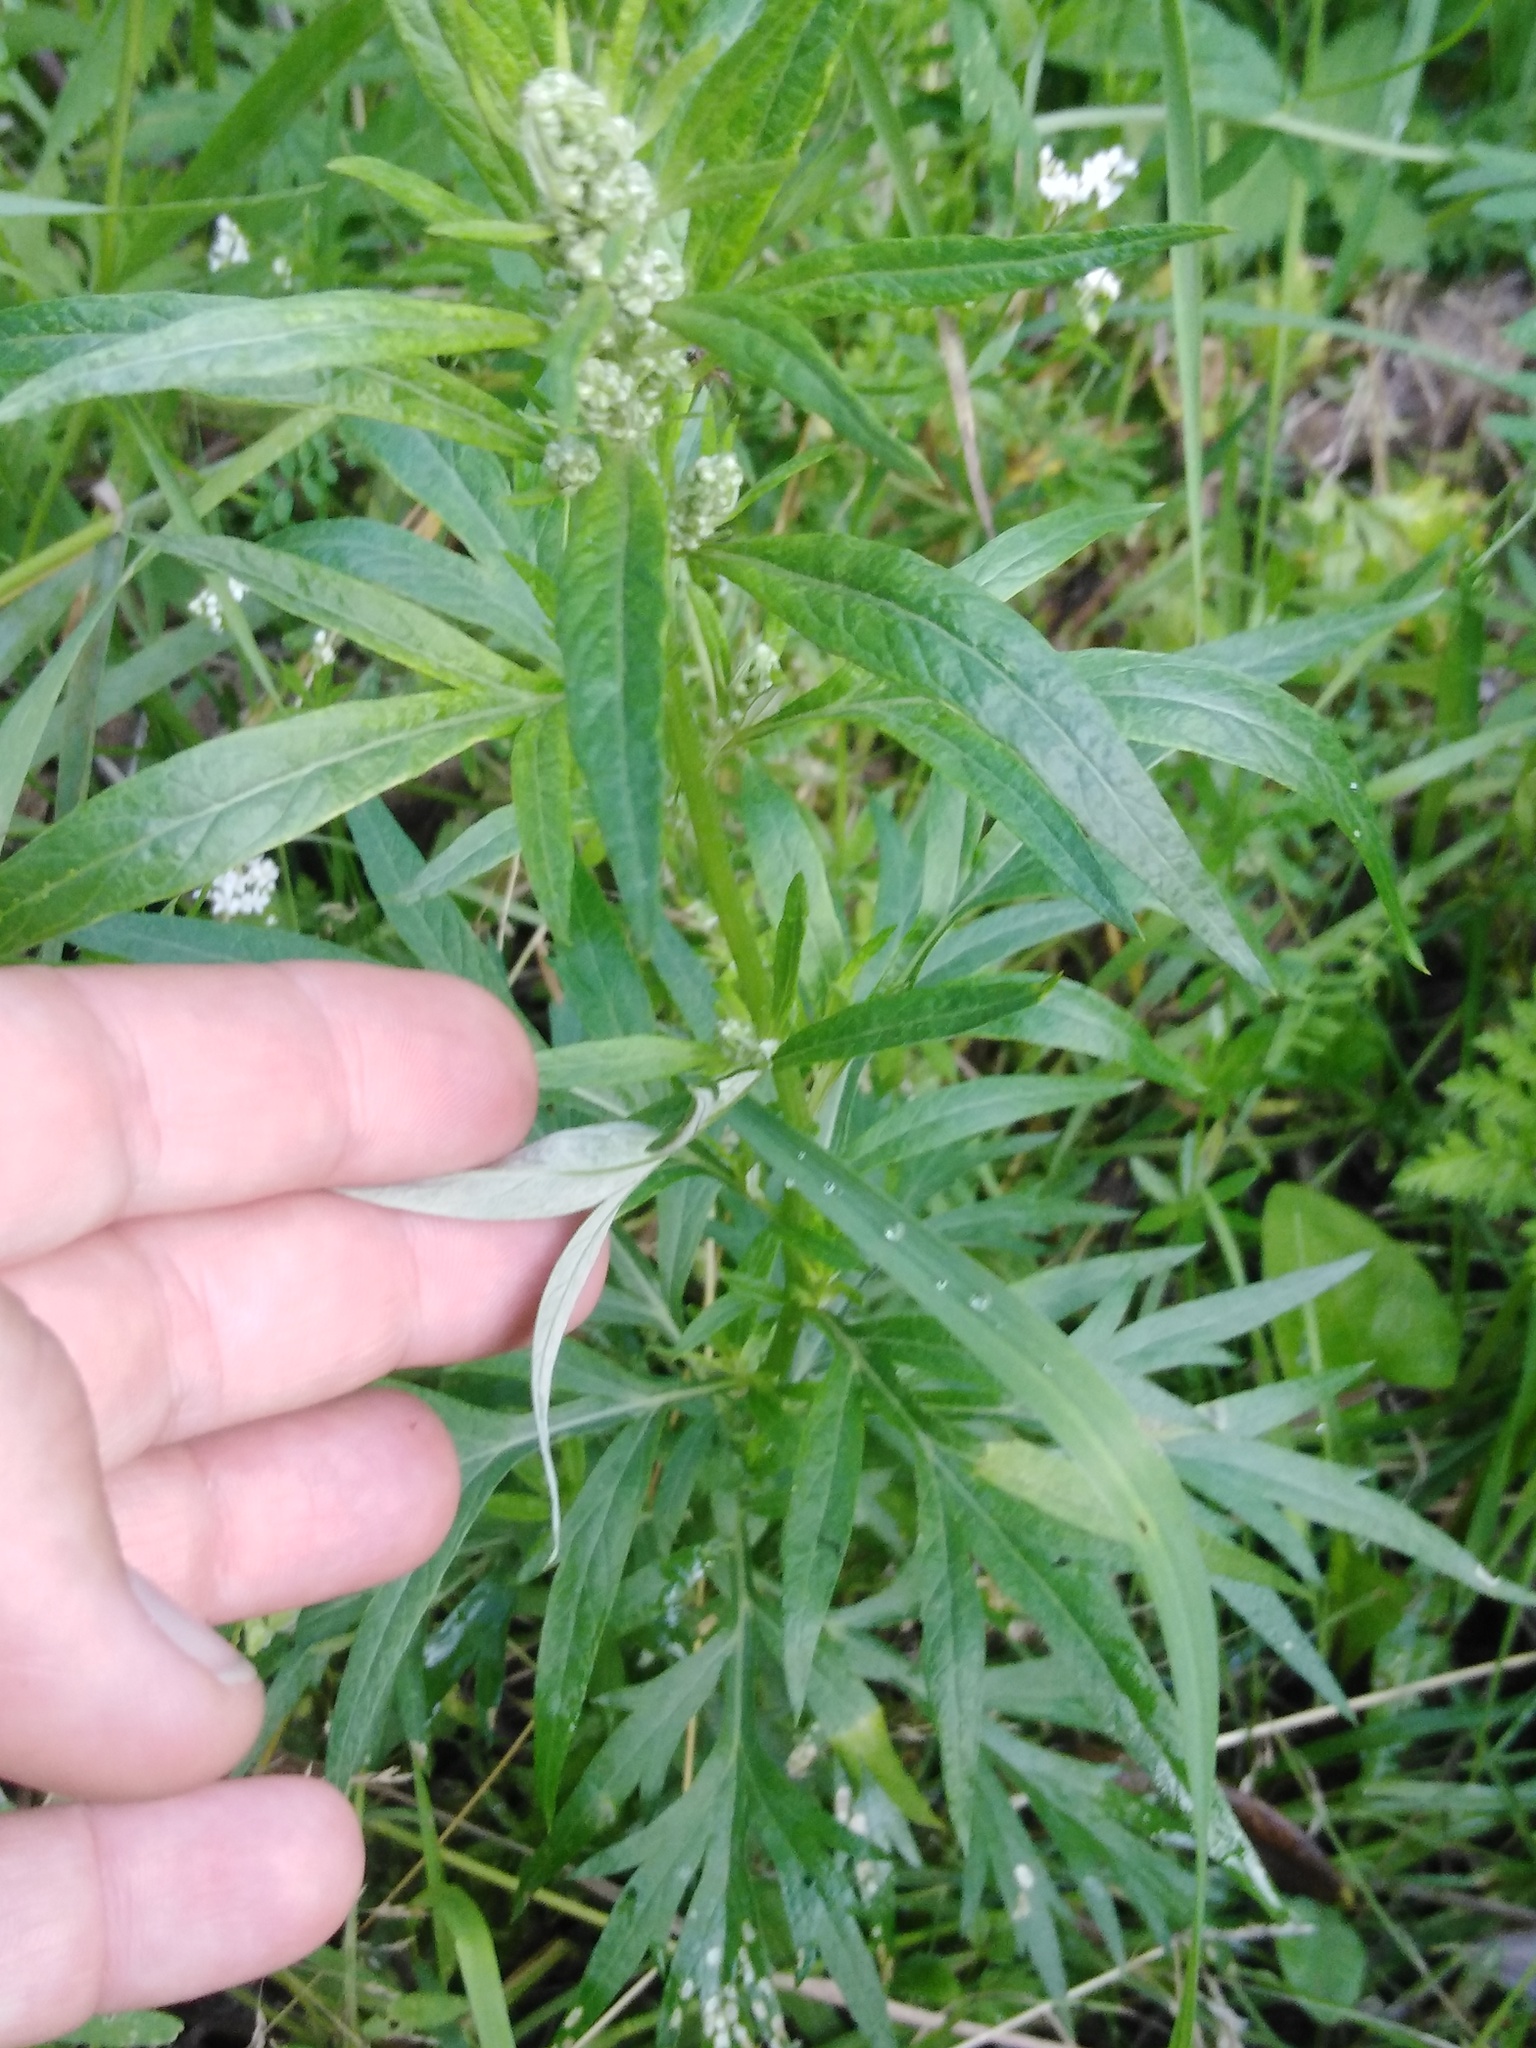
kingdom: Plantae
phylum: Tracheophyta
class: Magnoliopsida
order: Asterales
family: Asteraceae
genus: Artemisia
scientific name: Artemisia vulgaris
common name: Mugwort
